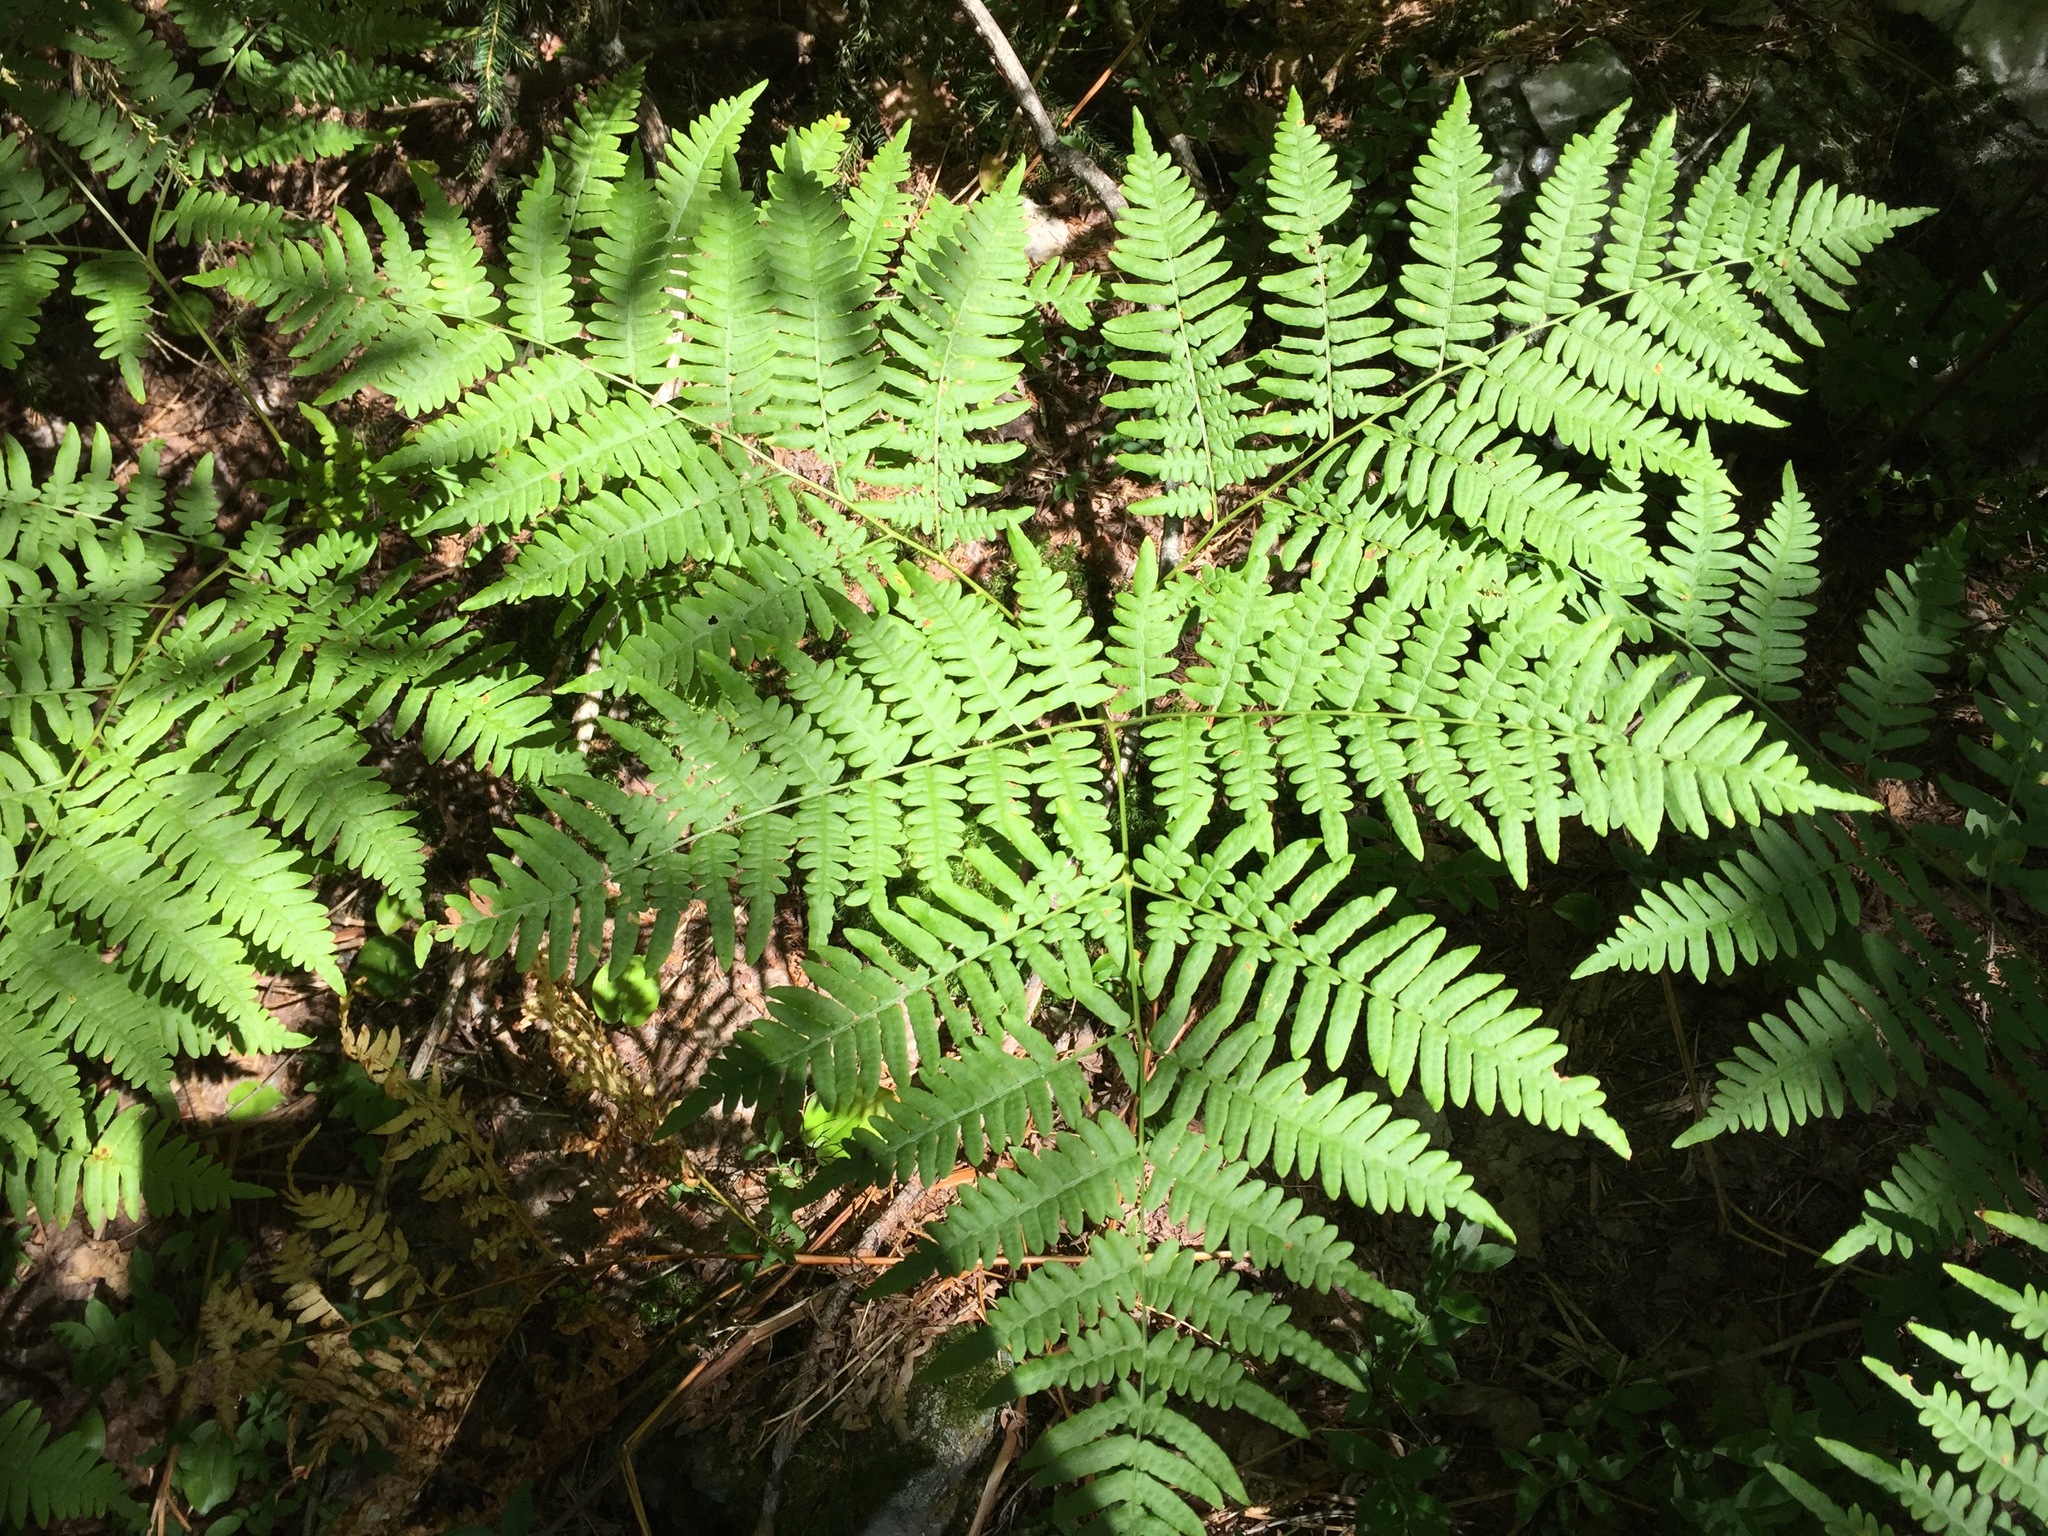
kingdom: Plantae
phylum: Tracheophyta
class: Polypodiopsida
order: Polypodiales
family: Dennstaedtiaceae
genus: Pteridium
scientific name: Pteridium aquilinum
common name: Bracken
